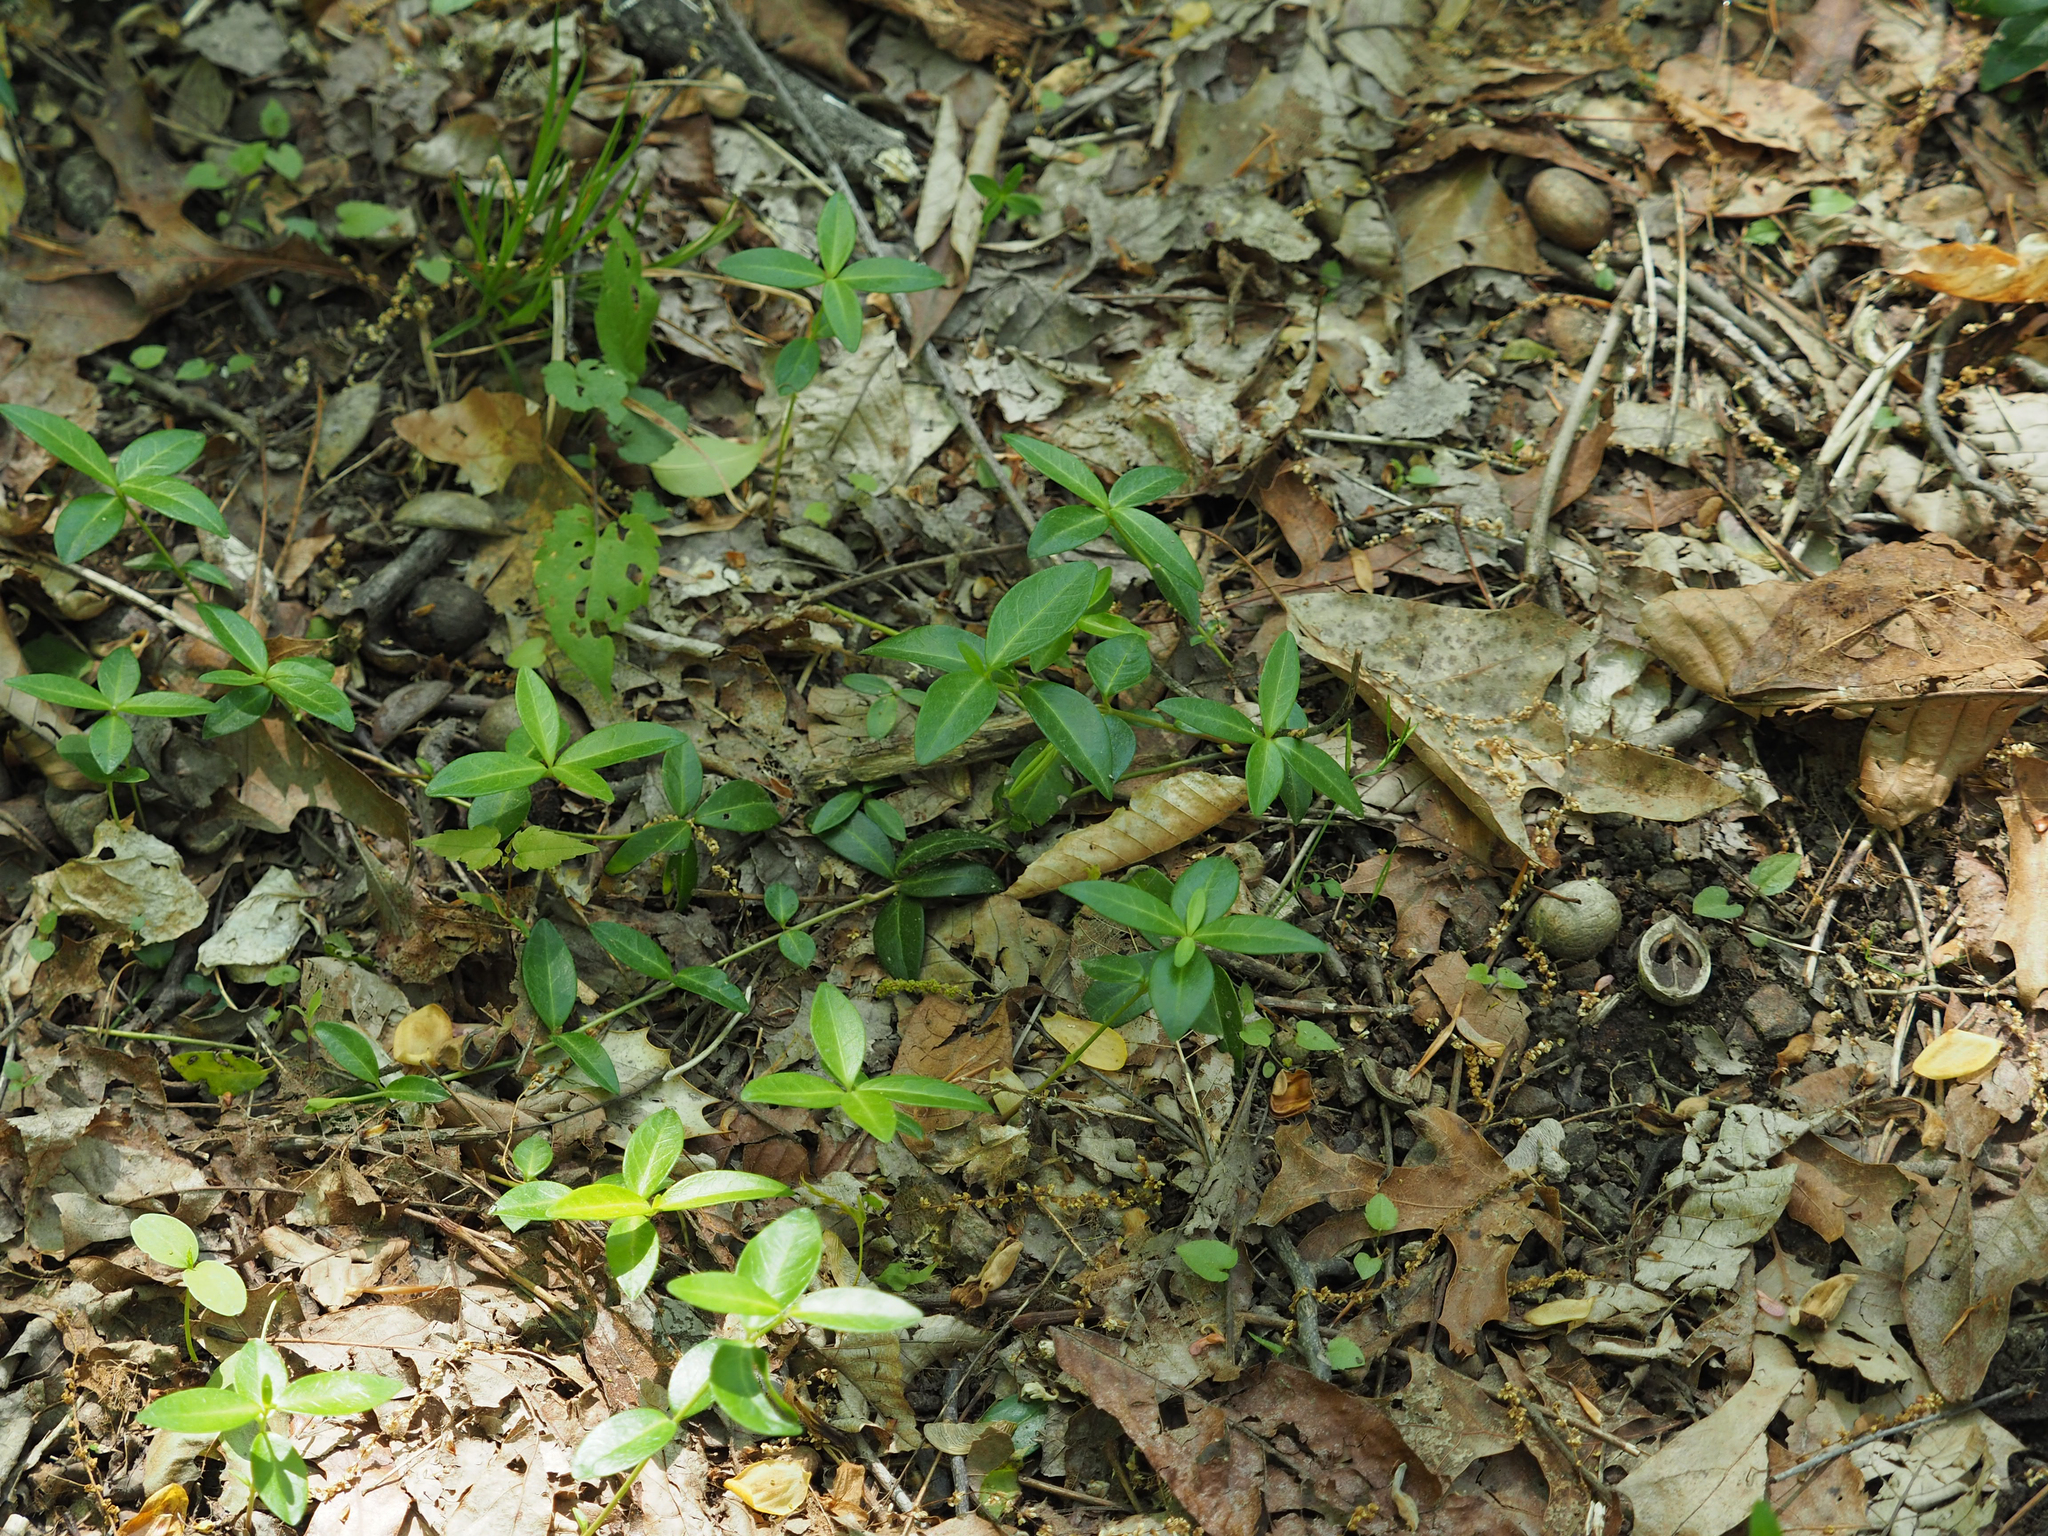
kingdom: Plantae
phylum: Tracheophyta
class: Magnoliopsida
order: Gentianales
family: Apocynaceae
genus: Vinca
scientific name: Vinca minor
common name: Lesser periwinkle
